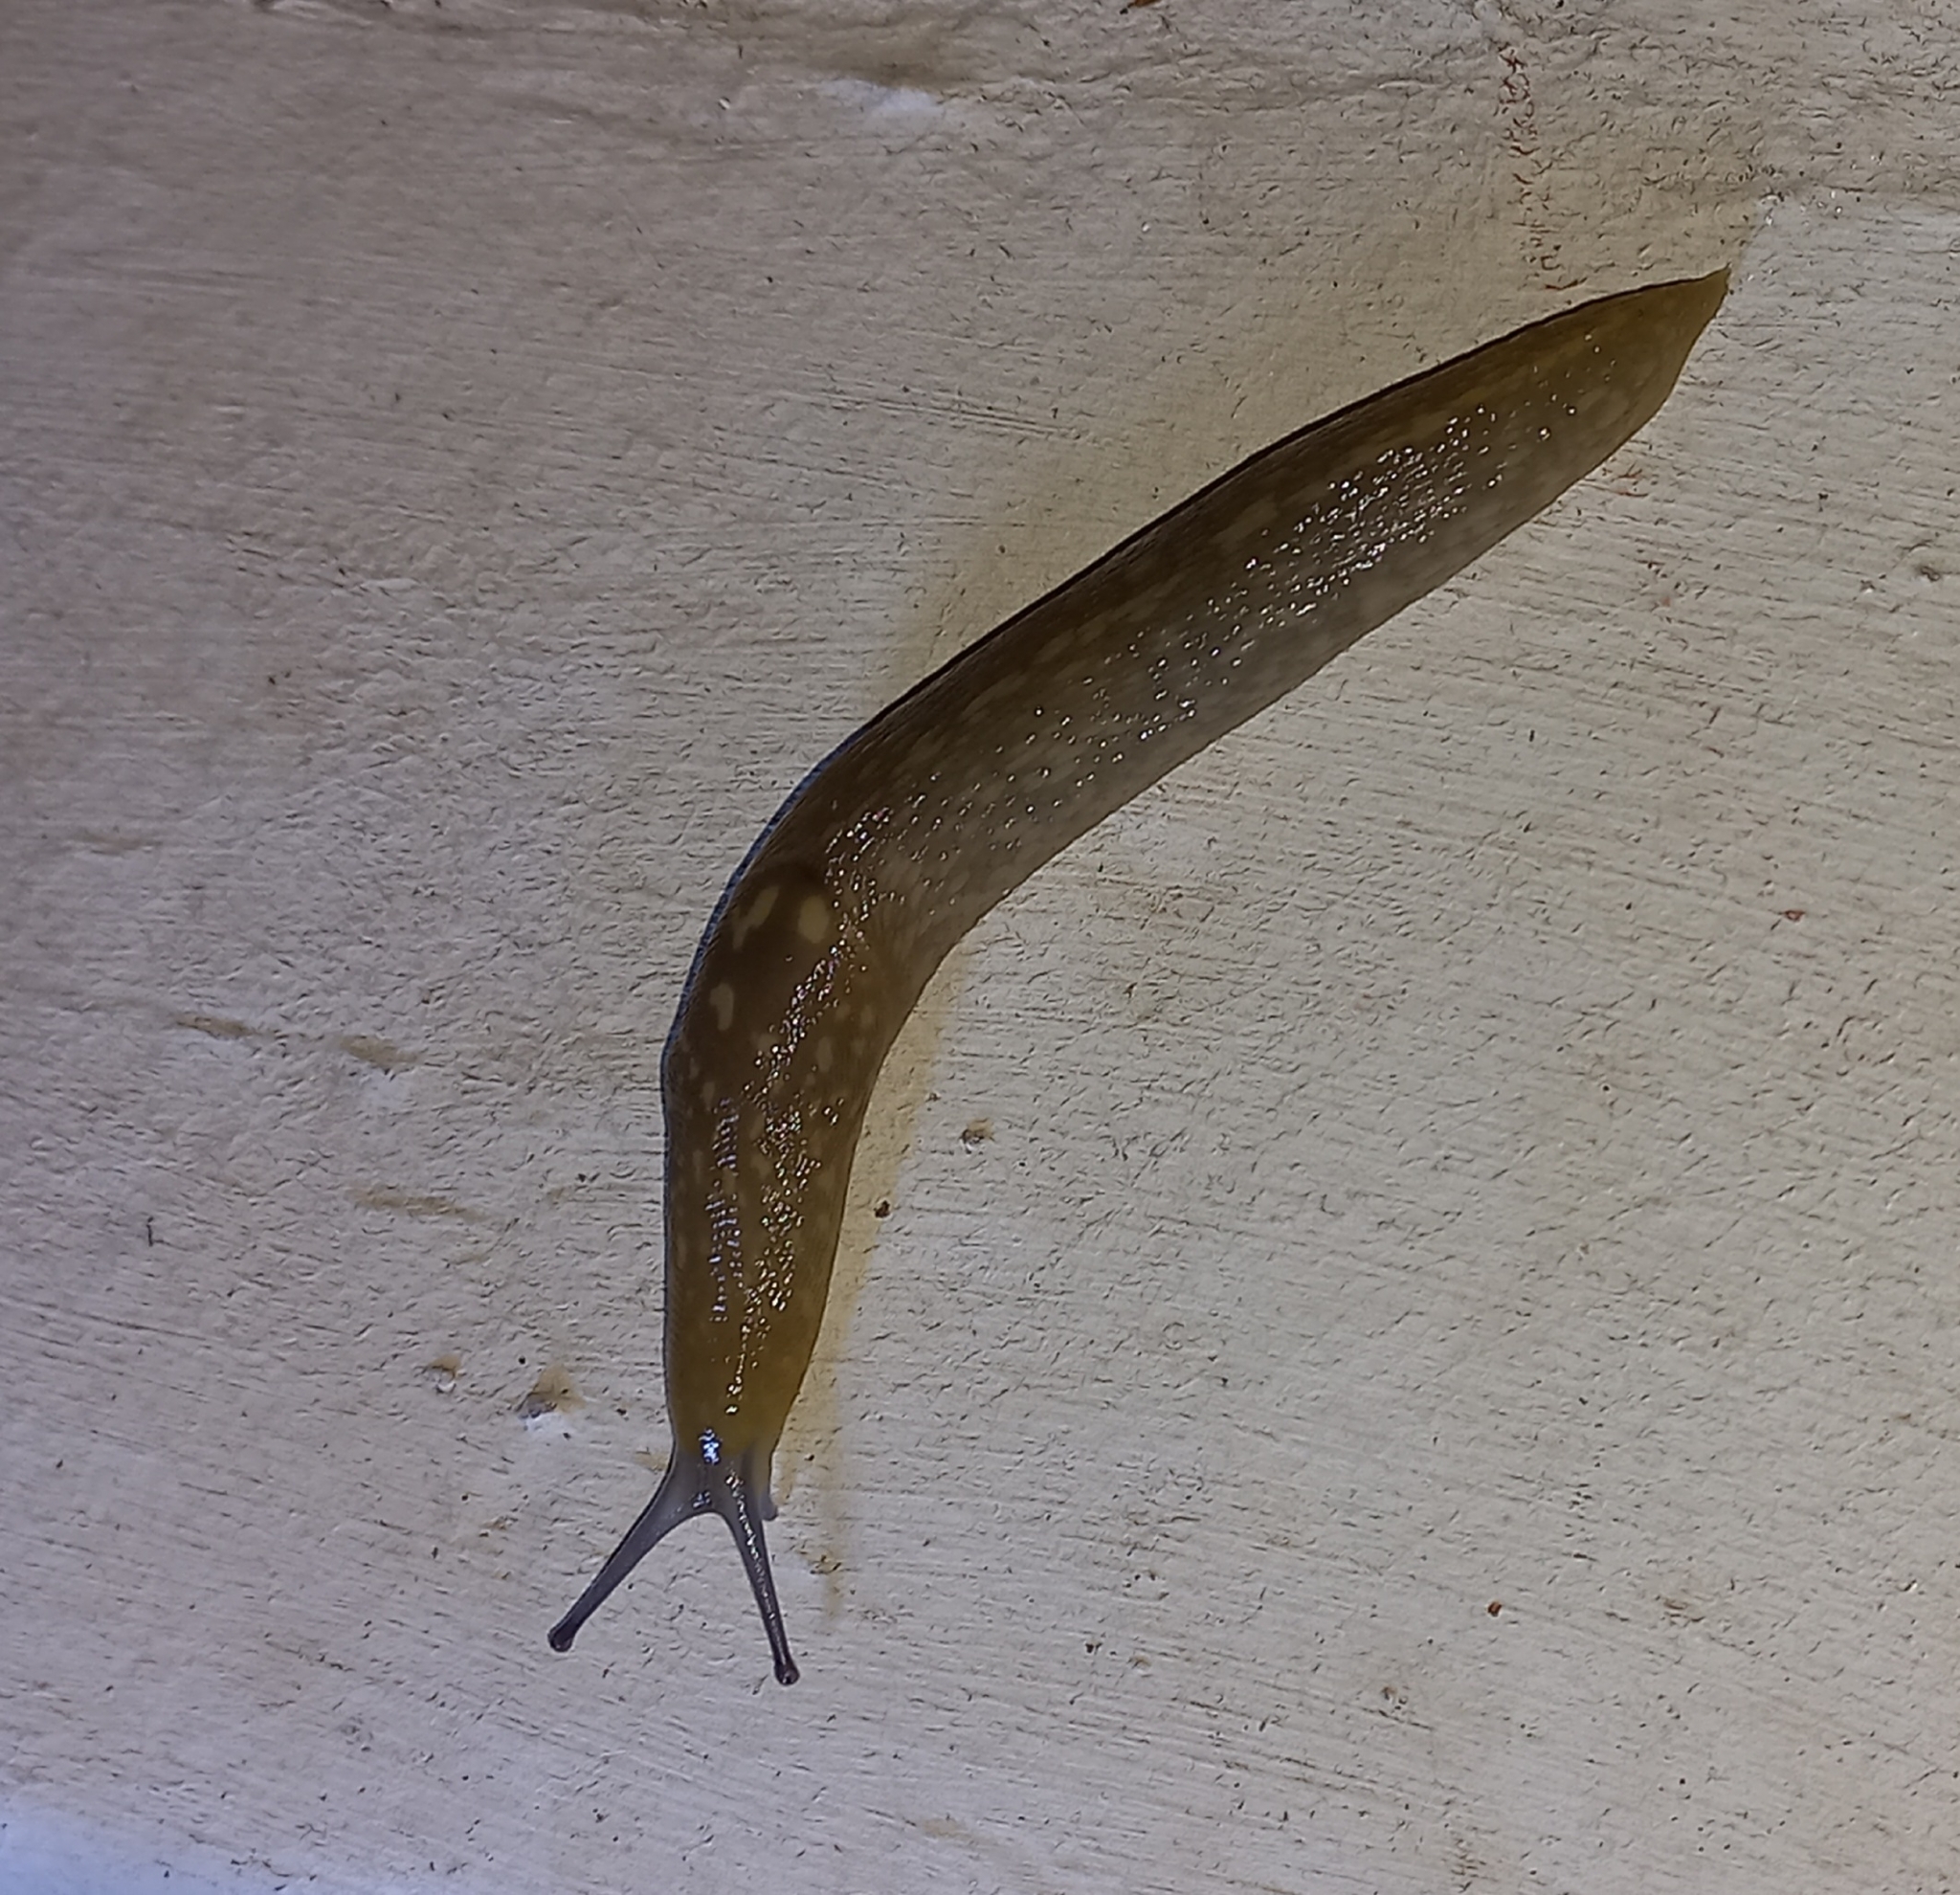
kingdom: Animalia
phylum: Mollusca
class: Gastropoda
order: Stylommatophora
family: Limacidae
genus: Limacus
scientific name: Limacus flavus
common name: Yellow gardenslug
